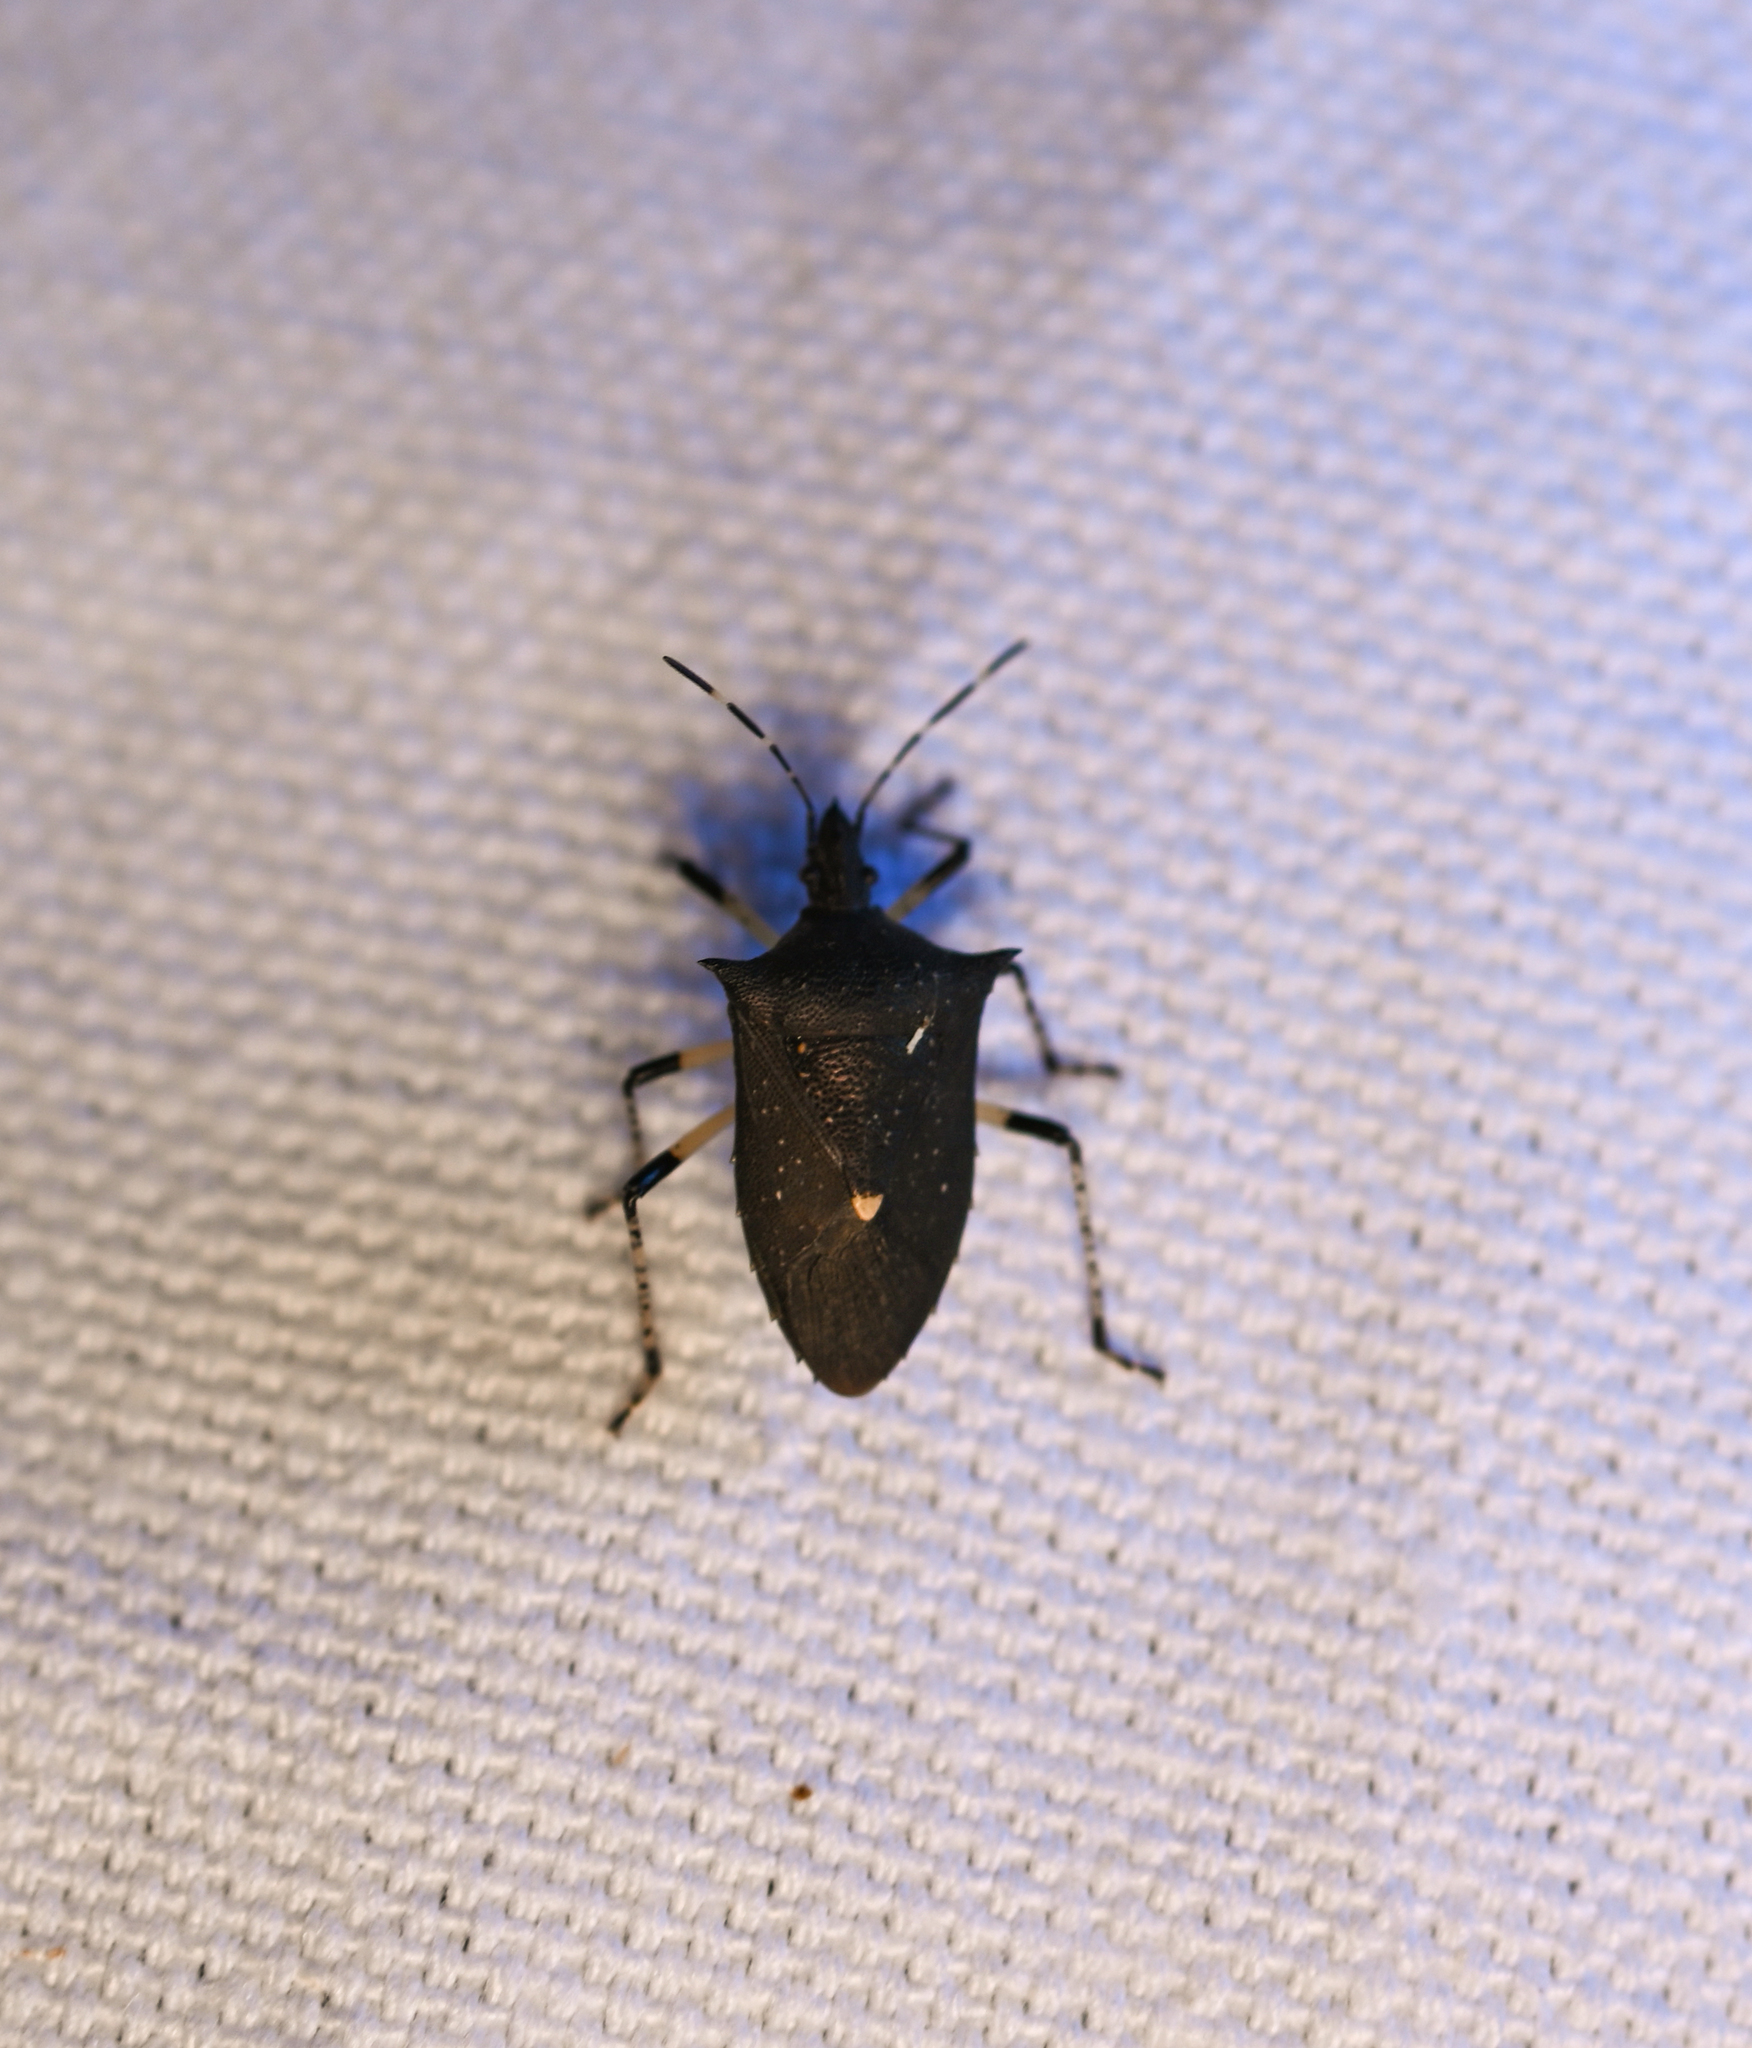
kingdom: Animalia
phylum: Arthropoda
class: Insecta
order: Hemiptera
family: Pentatomidae
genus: Proxys
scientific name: Proxys punctulatus
